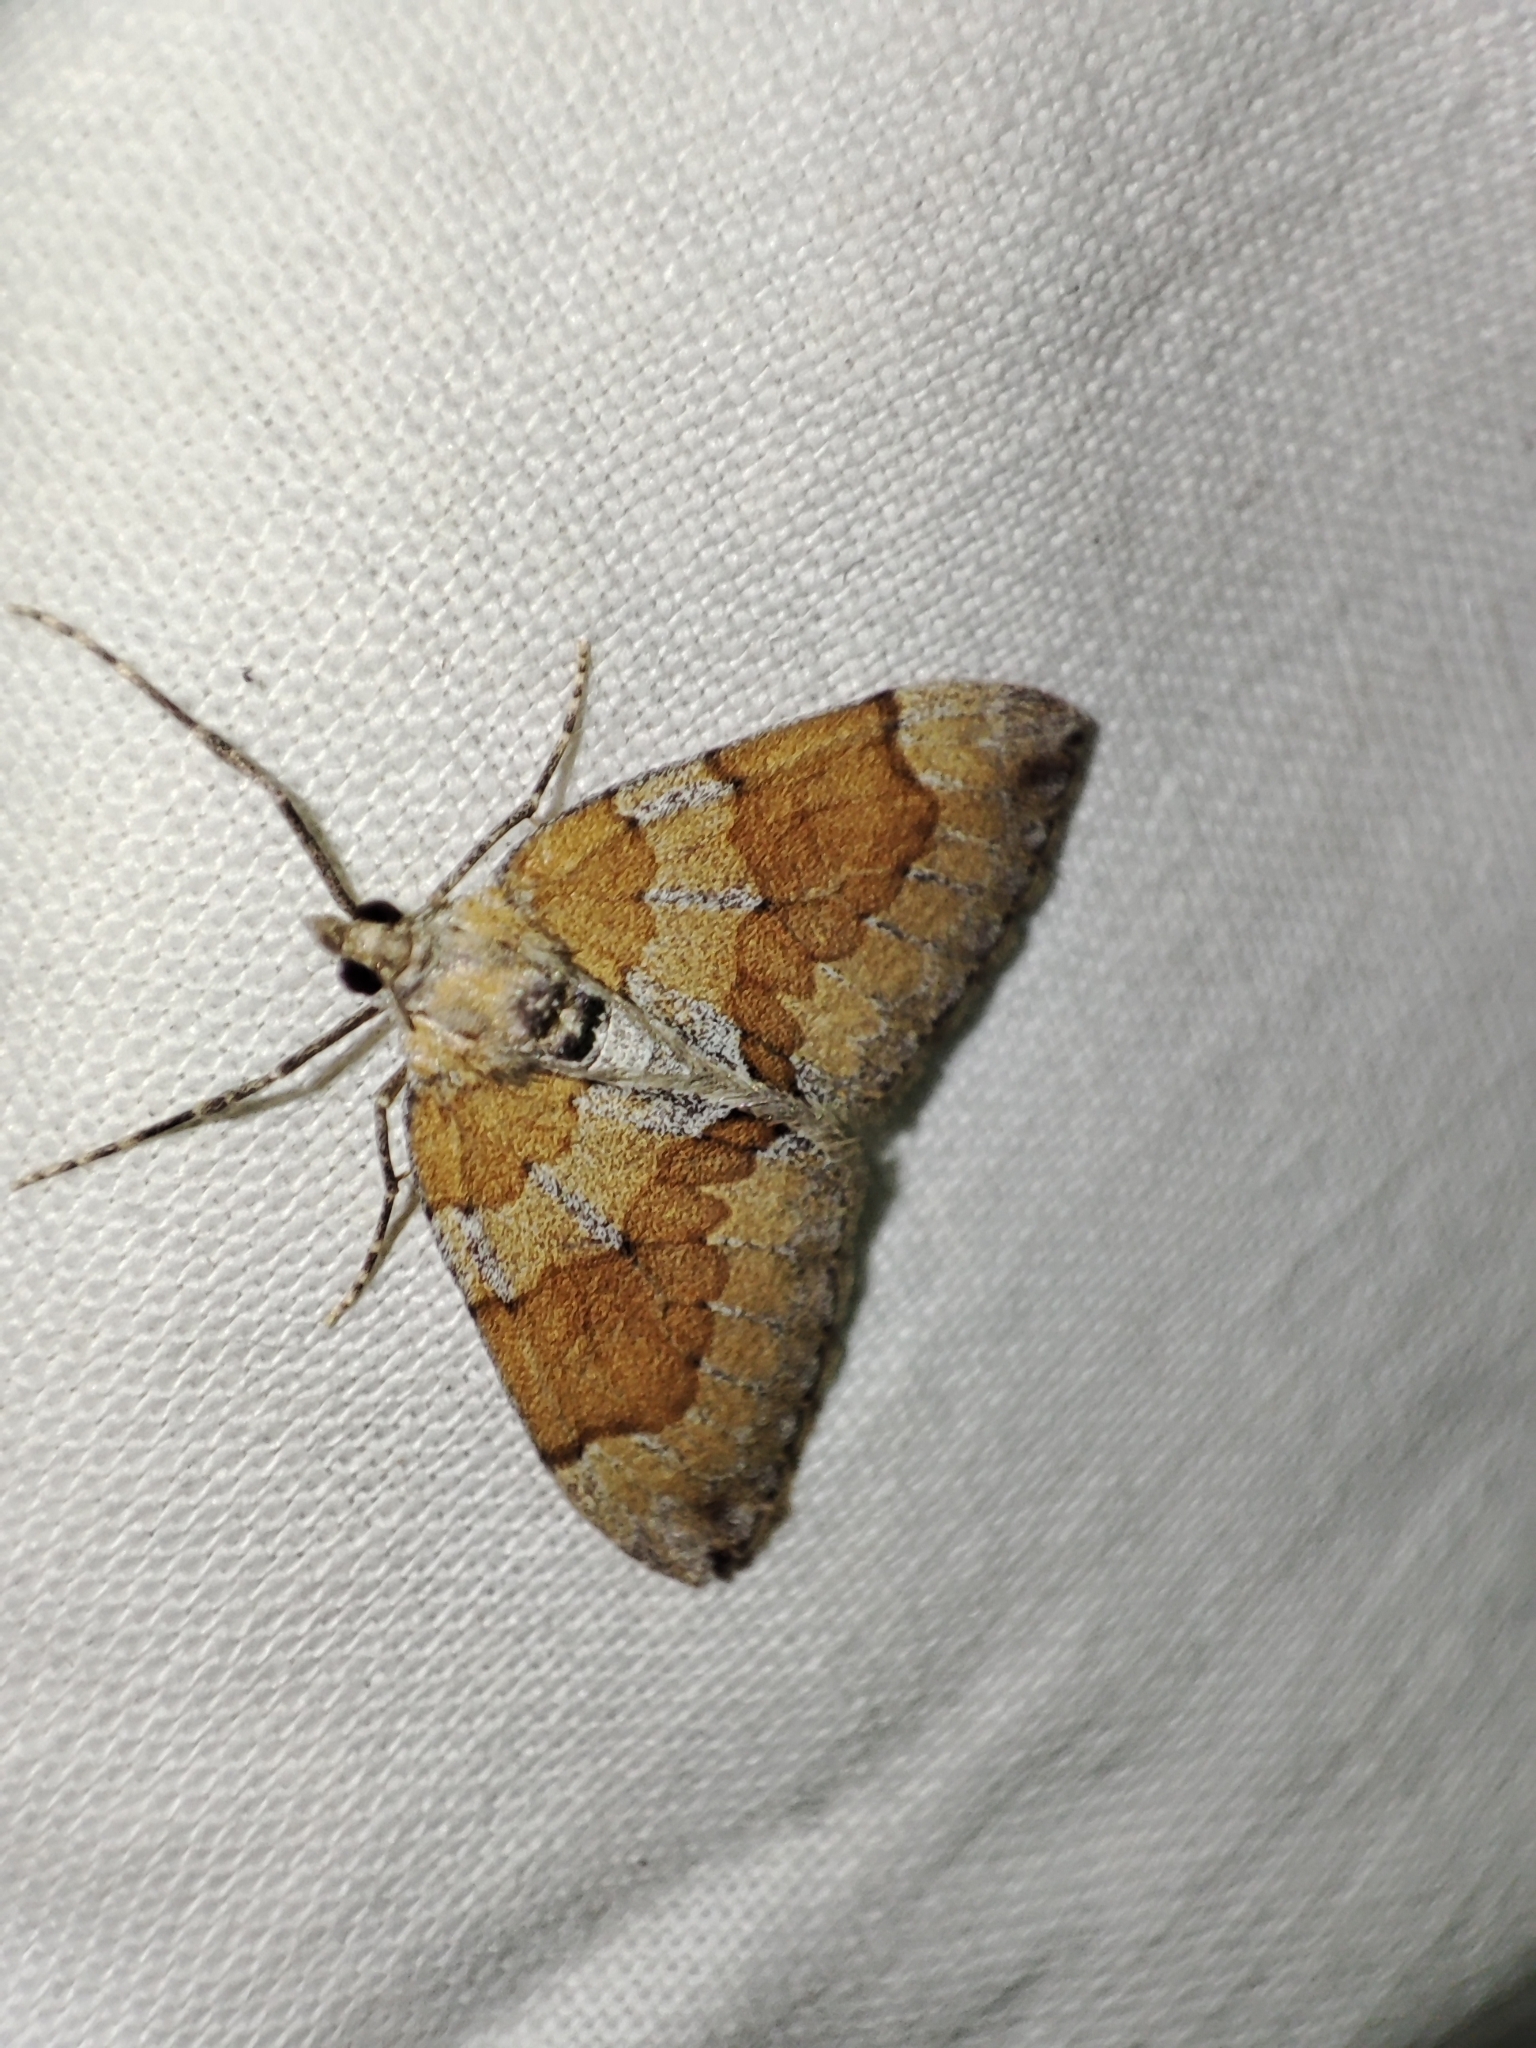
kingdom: Animalia
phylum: Arthropoda
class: Insecta
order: Lepidoptera
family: Geometridae
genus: Thera
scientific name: Thera obeliscata
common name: Grey pine carpet
